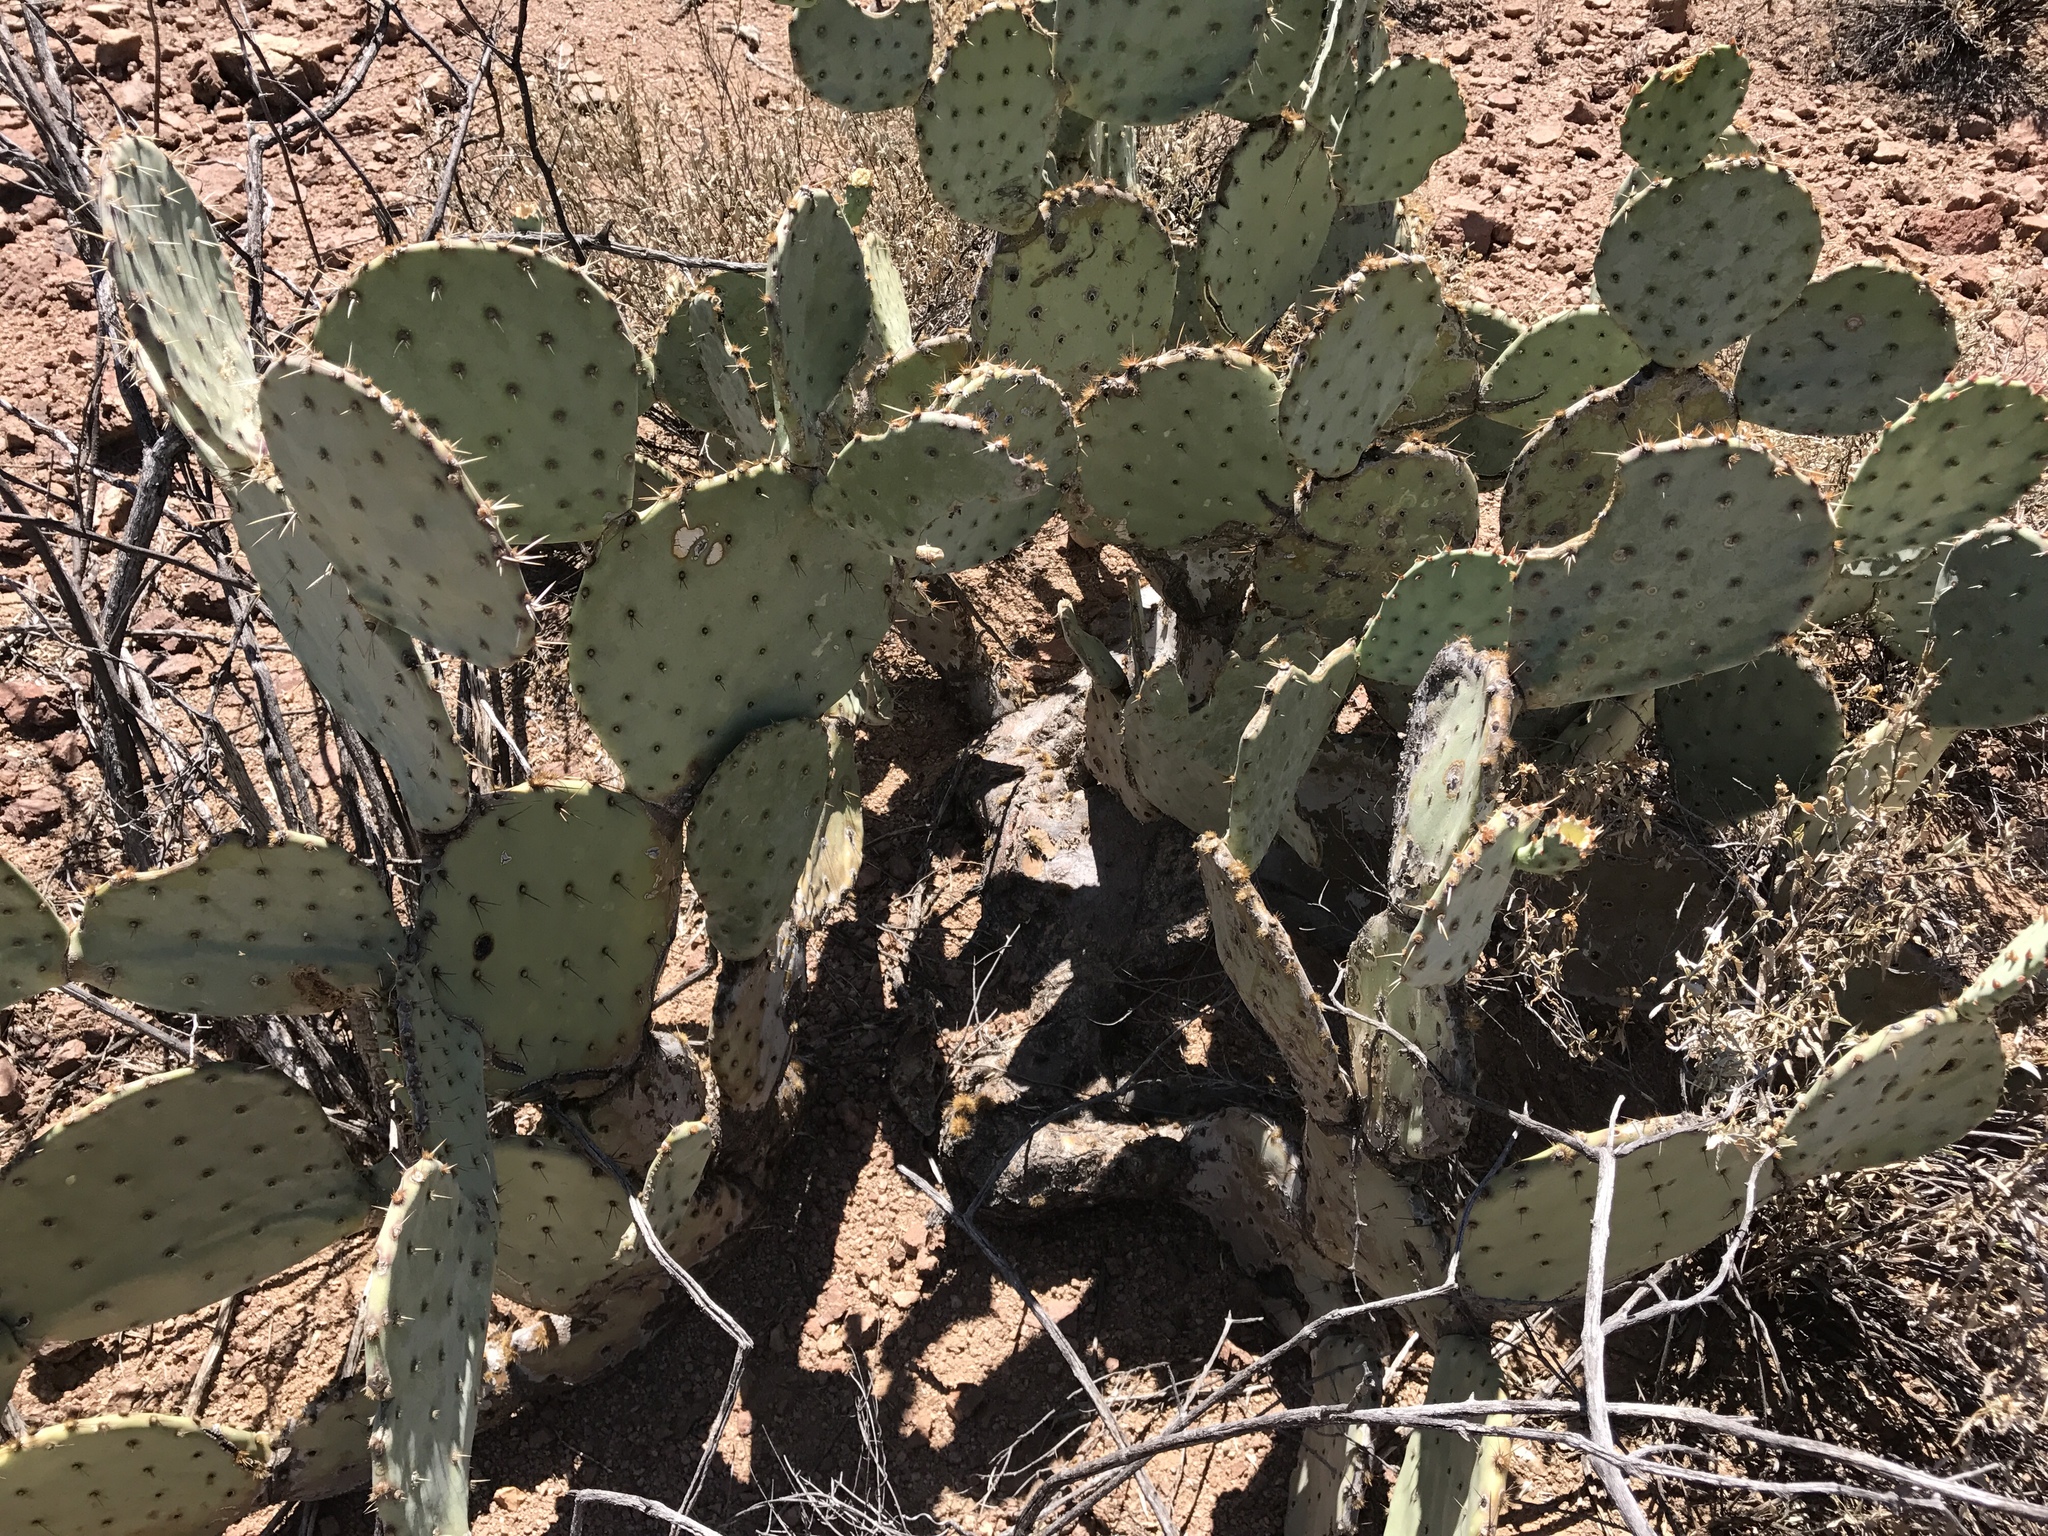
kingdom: Plantae
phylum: Tracheophyta
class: Magnoliopsida
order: Caryophyllales
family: Cactaceae
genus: Opuntia
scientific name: Opuntia engelmannii
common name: Cactus-apple
